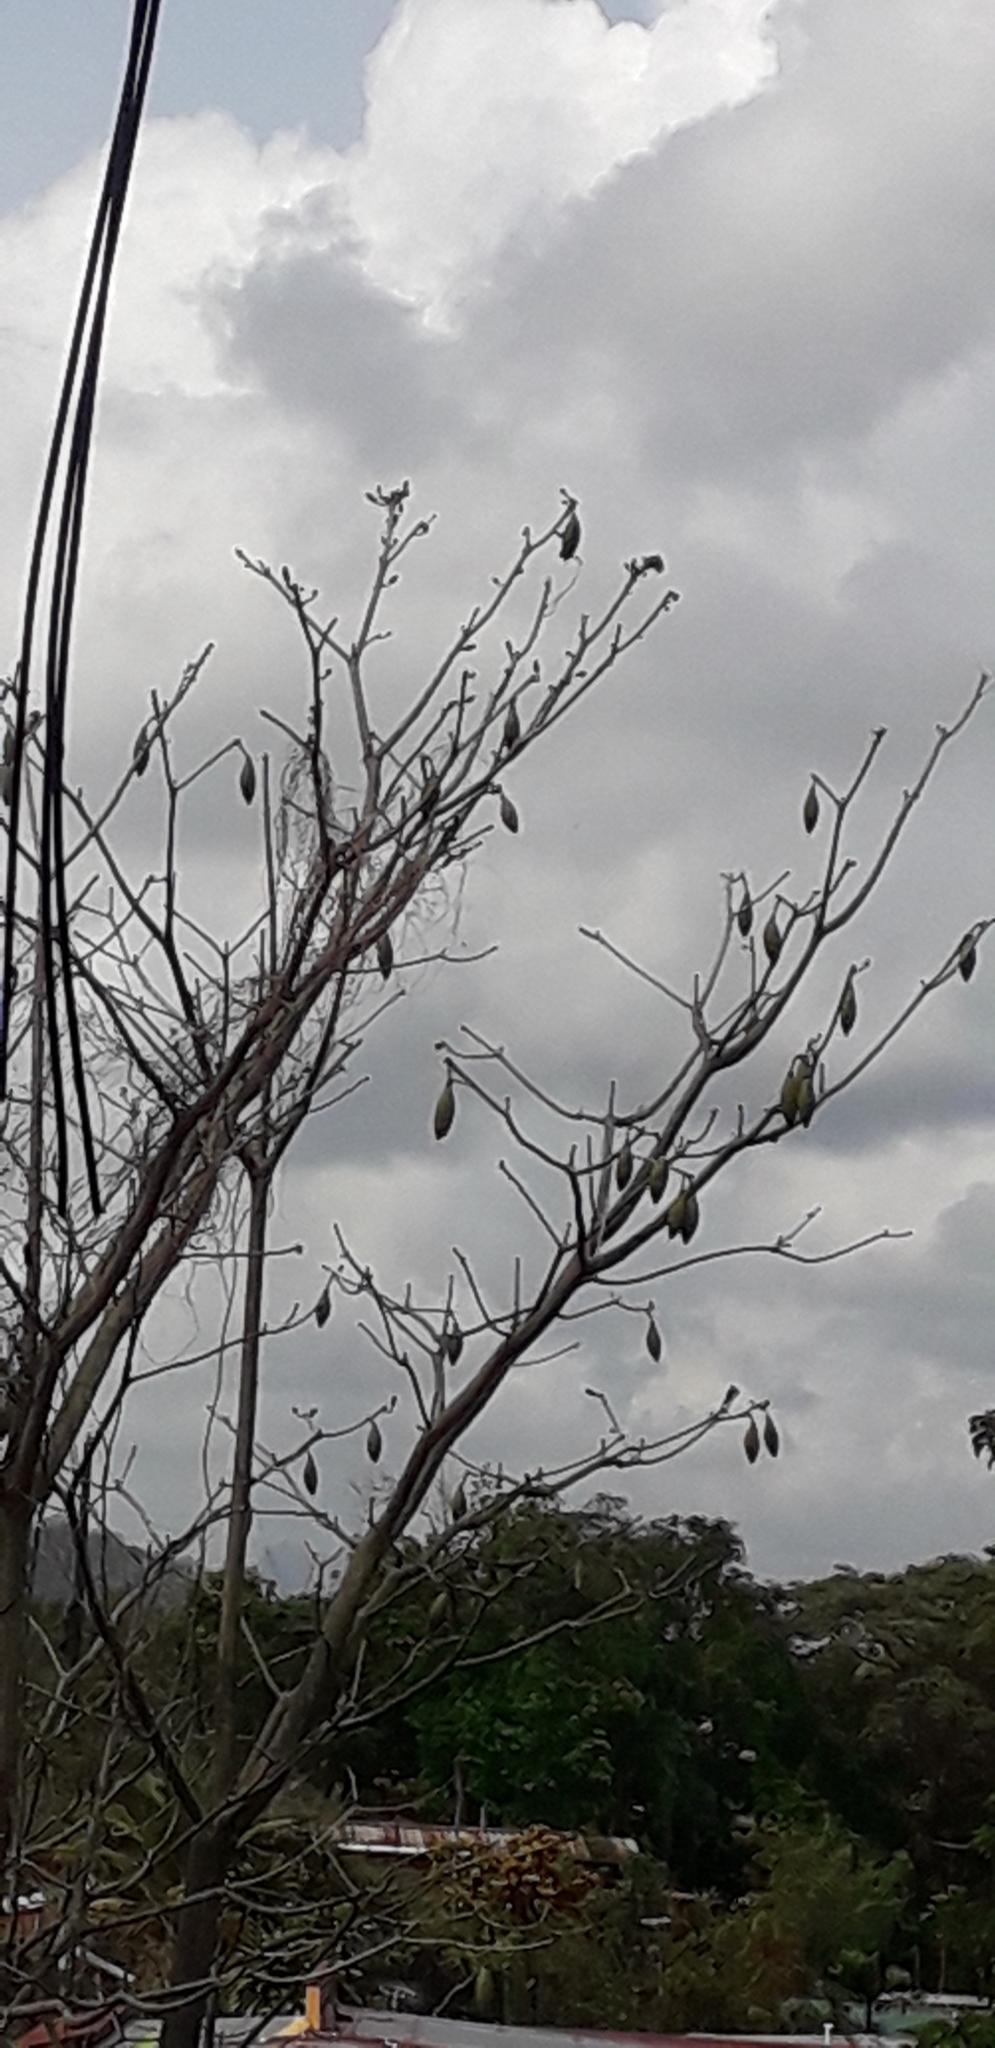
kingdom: Plantae
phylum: Tracheophyta
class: Magnoliopsida
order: Malvales
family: Malvaceae
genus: Pseudobombax
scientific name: Pseudobombax septenatum
